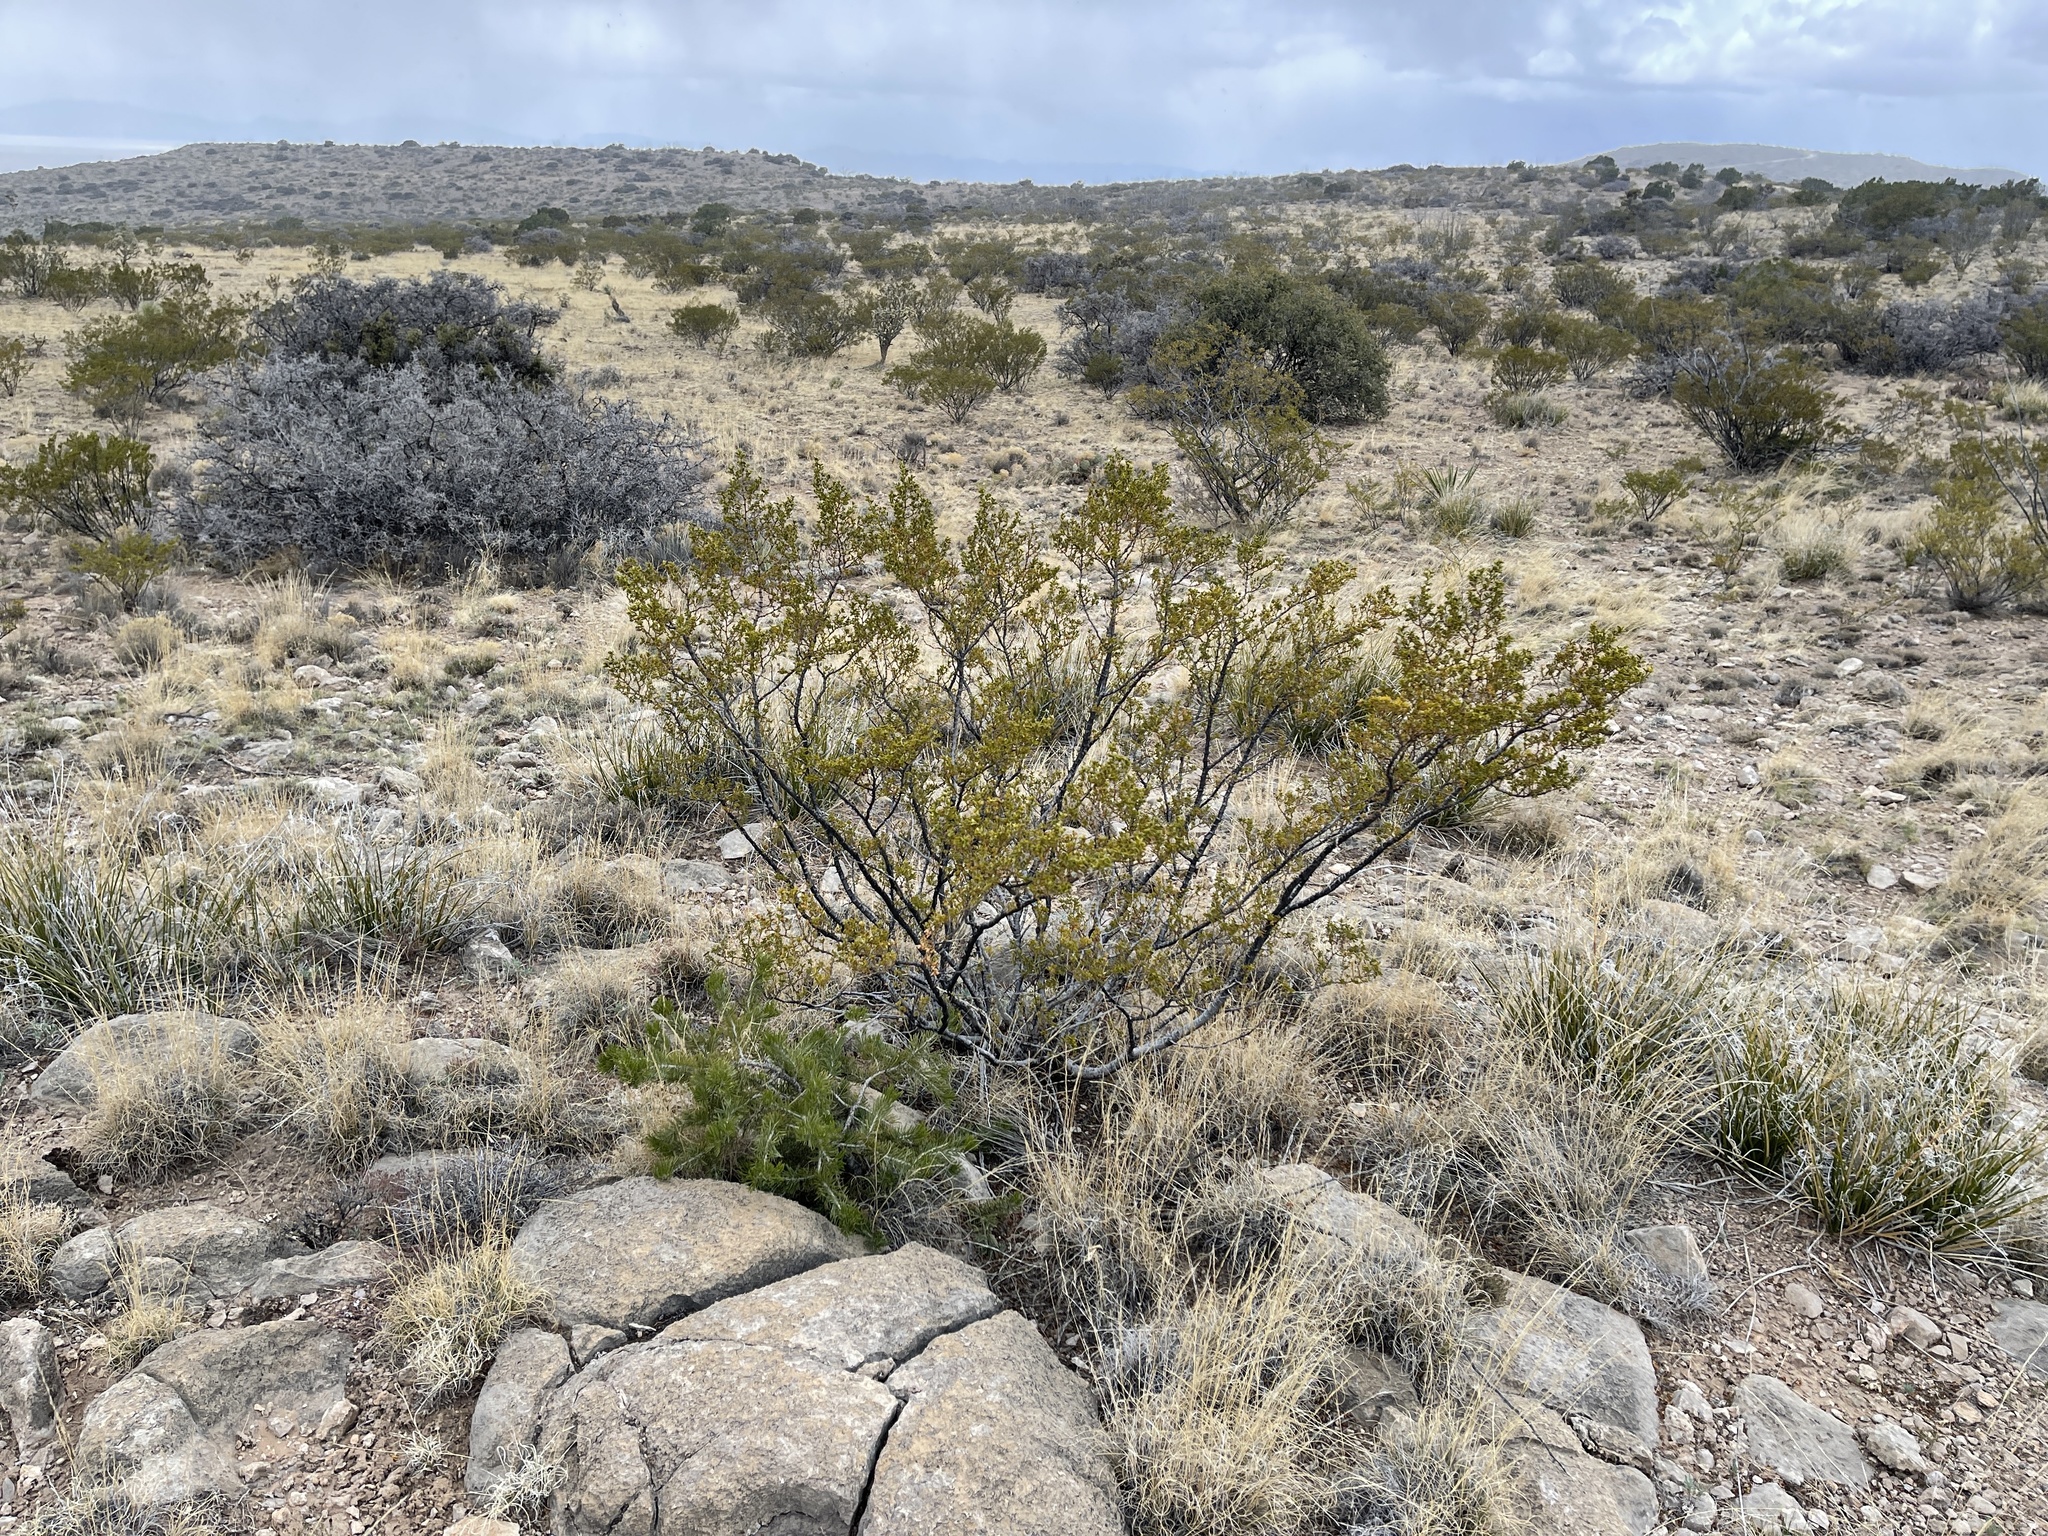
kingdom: Plantae
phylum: Tracheophyta
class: Magnoliopsida
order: Zygophyllales
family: Zygophyllaceae
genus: Larrea
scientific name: Larrea tridentata
